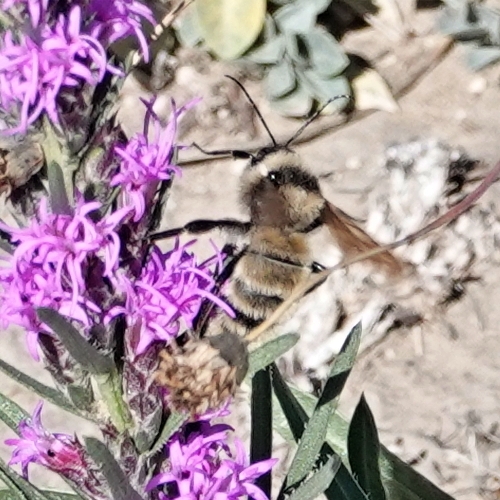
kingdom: Animalia
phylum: Arthropoda
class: Insecta
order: Hymenoptera
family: Apidae
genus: Bombus
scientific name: Bombus pensylvanicus
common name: Bumble bee
